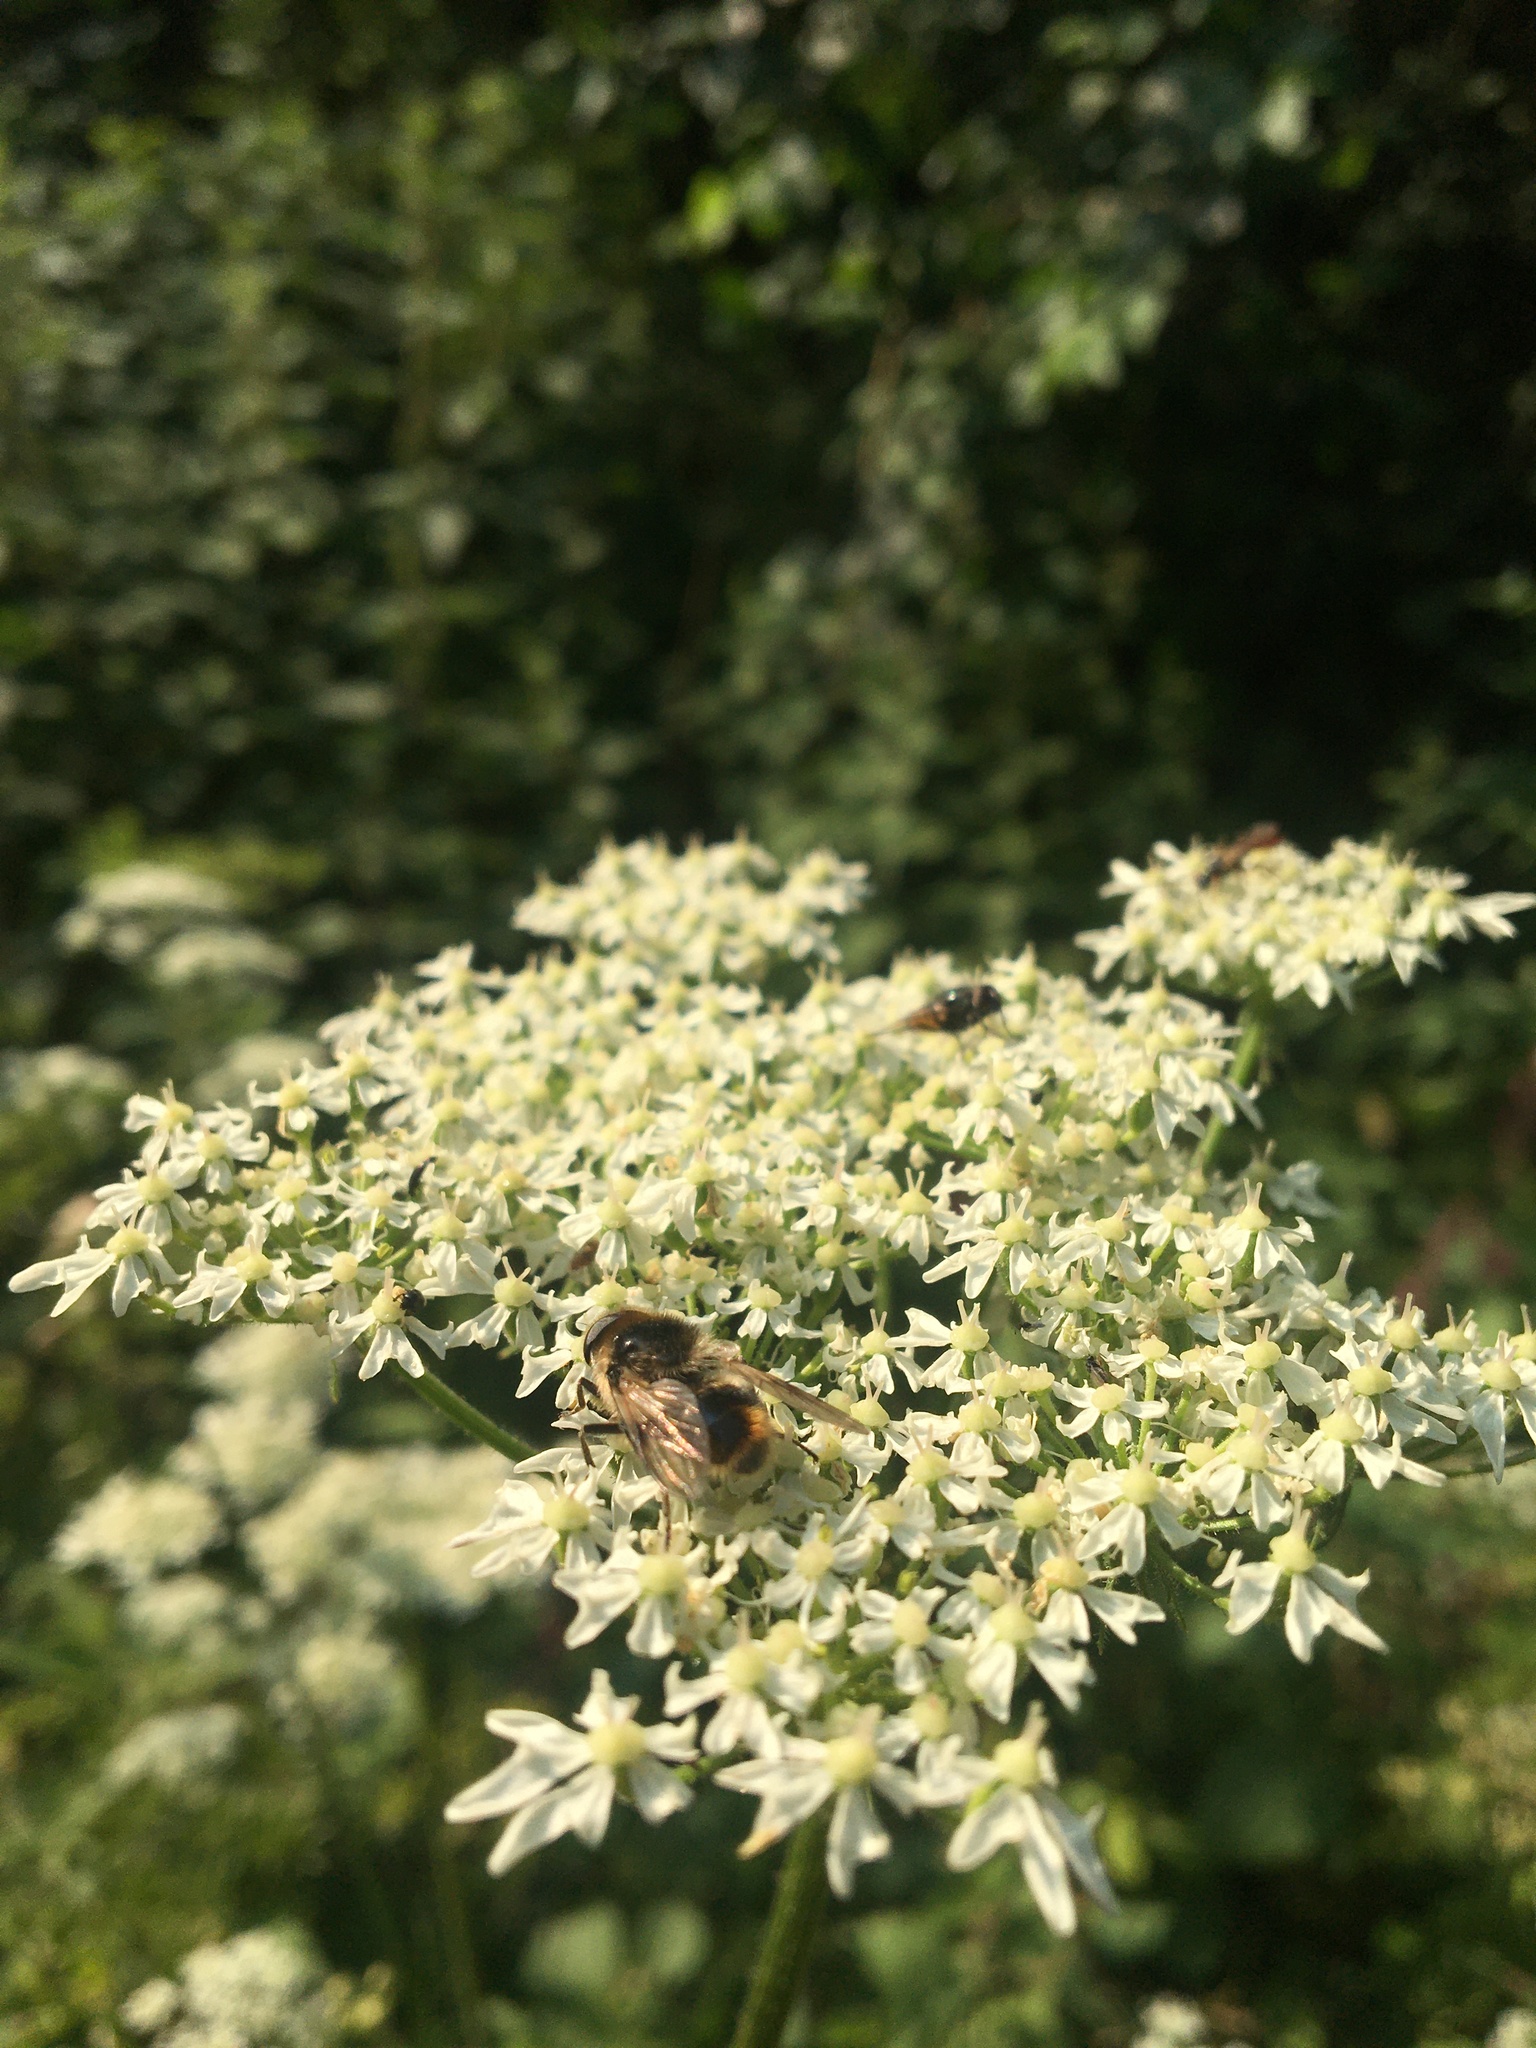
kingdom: Animalia
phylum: Arthropoda
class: Insecta
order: Diptera
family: Syrphidae
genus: Cheilosia
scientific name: Cheilosia illustrata
